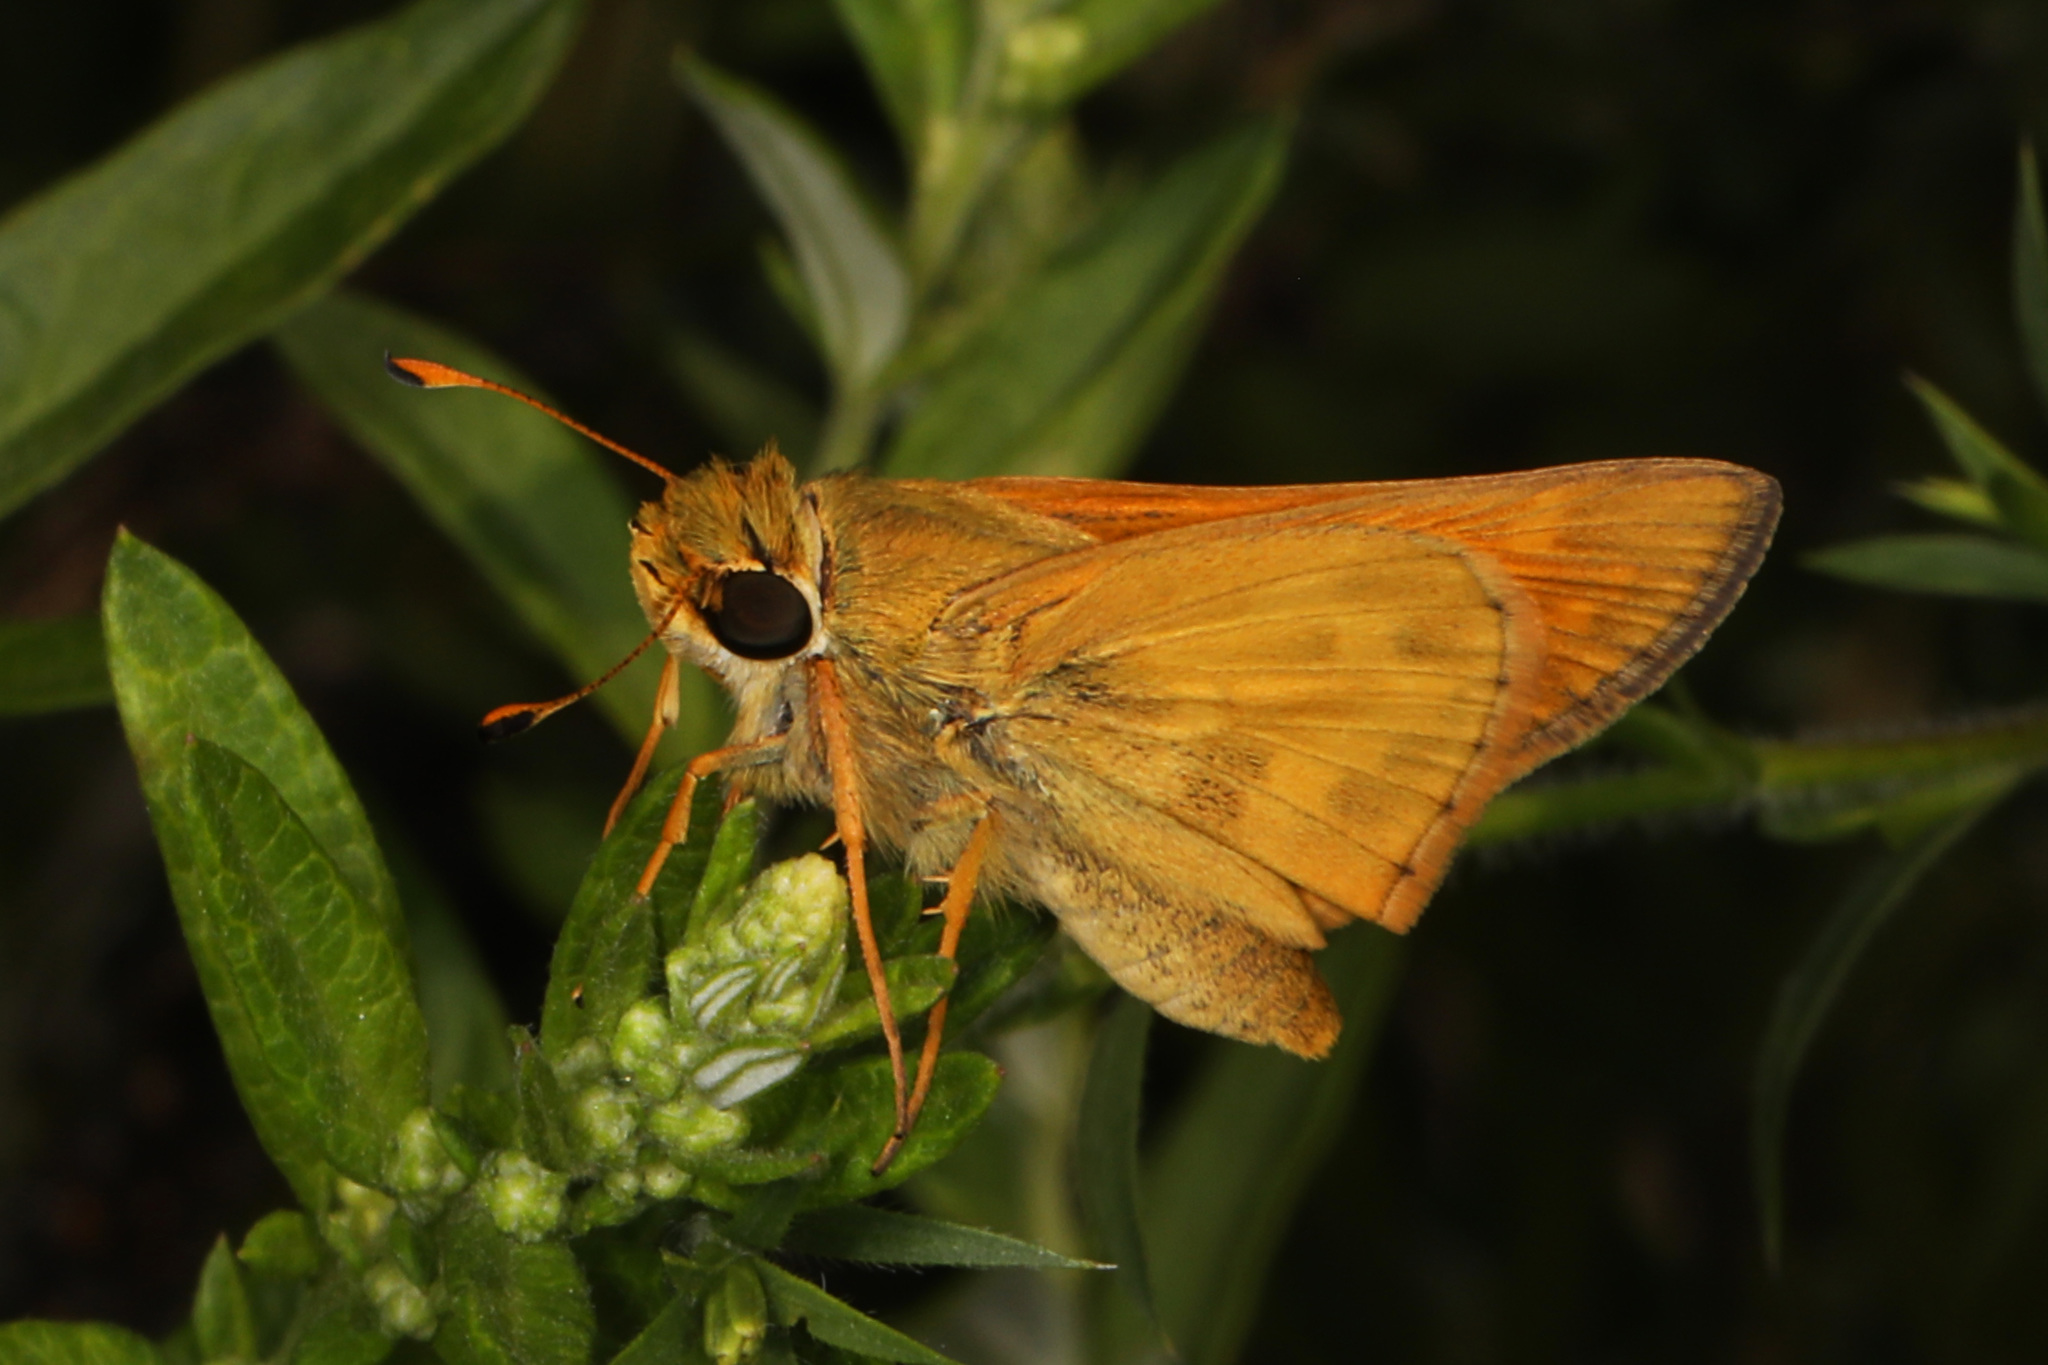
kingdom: Animalia
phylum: Arthropoda
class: Insecta
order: Lepidoptera
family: Hesperiidae
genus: Atalopedes
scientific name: Atalopedes
